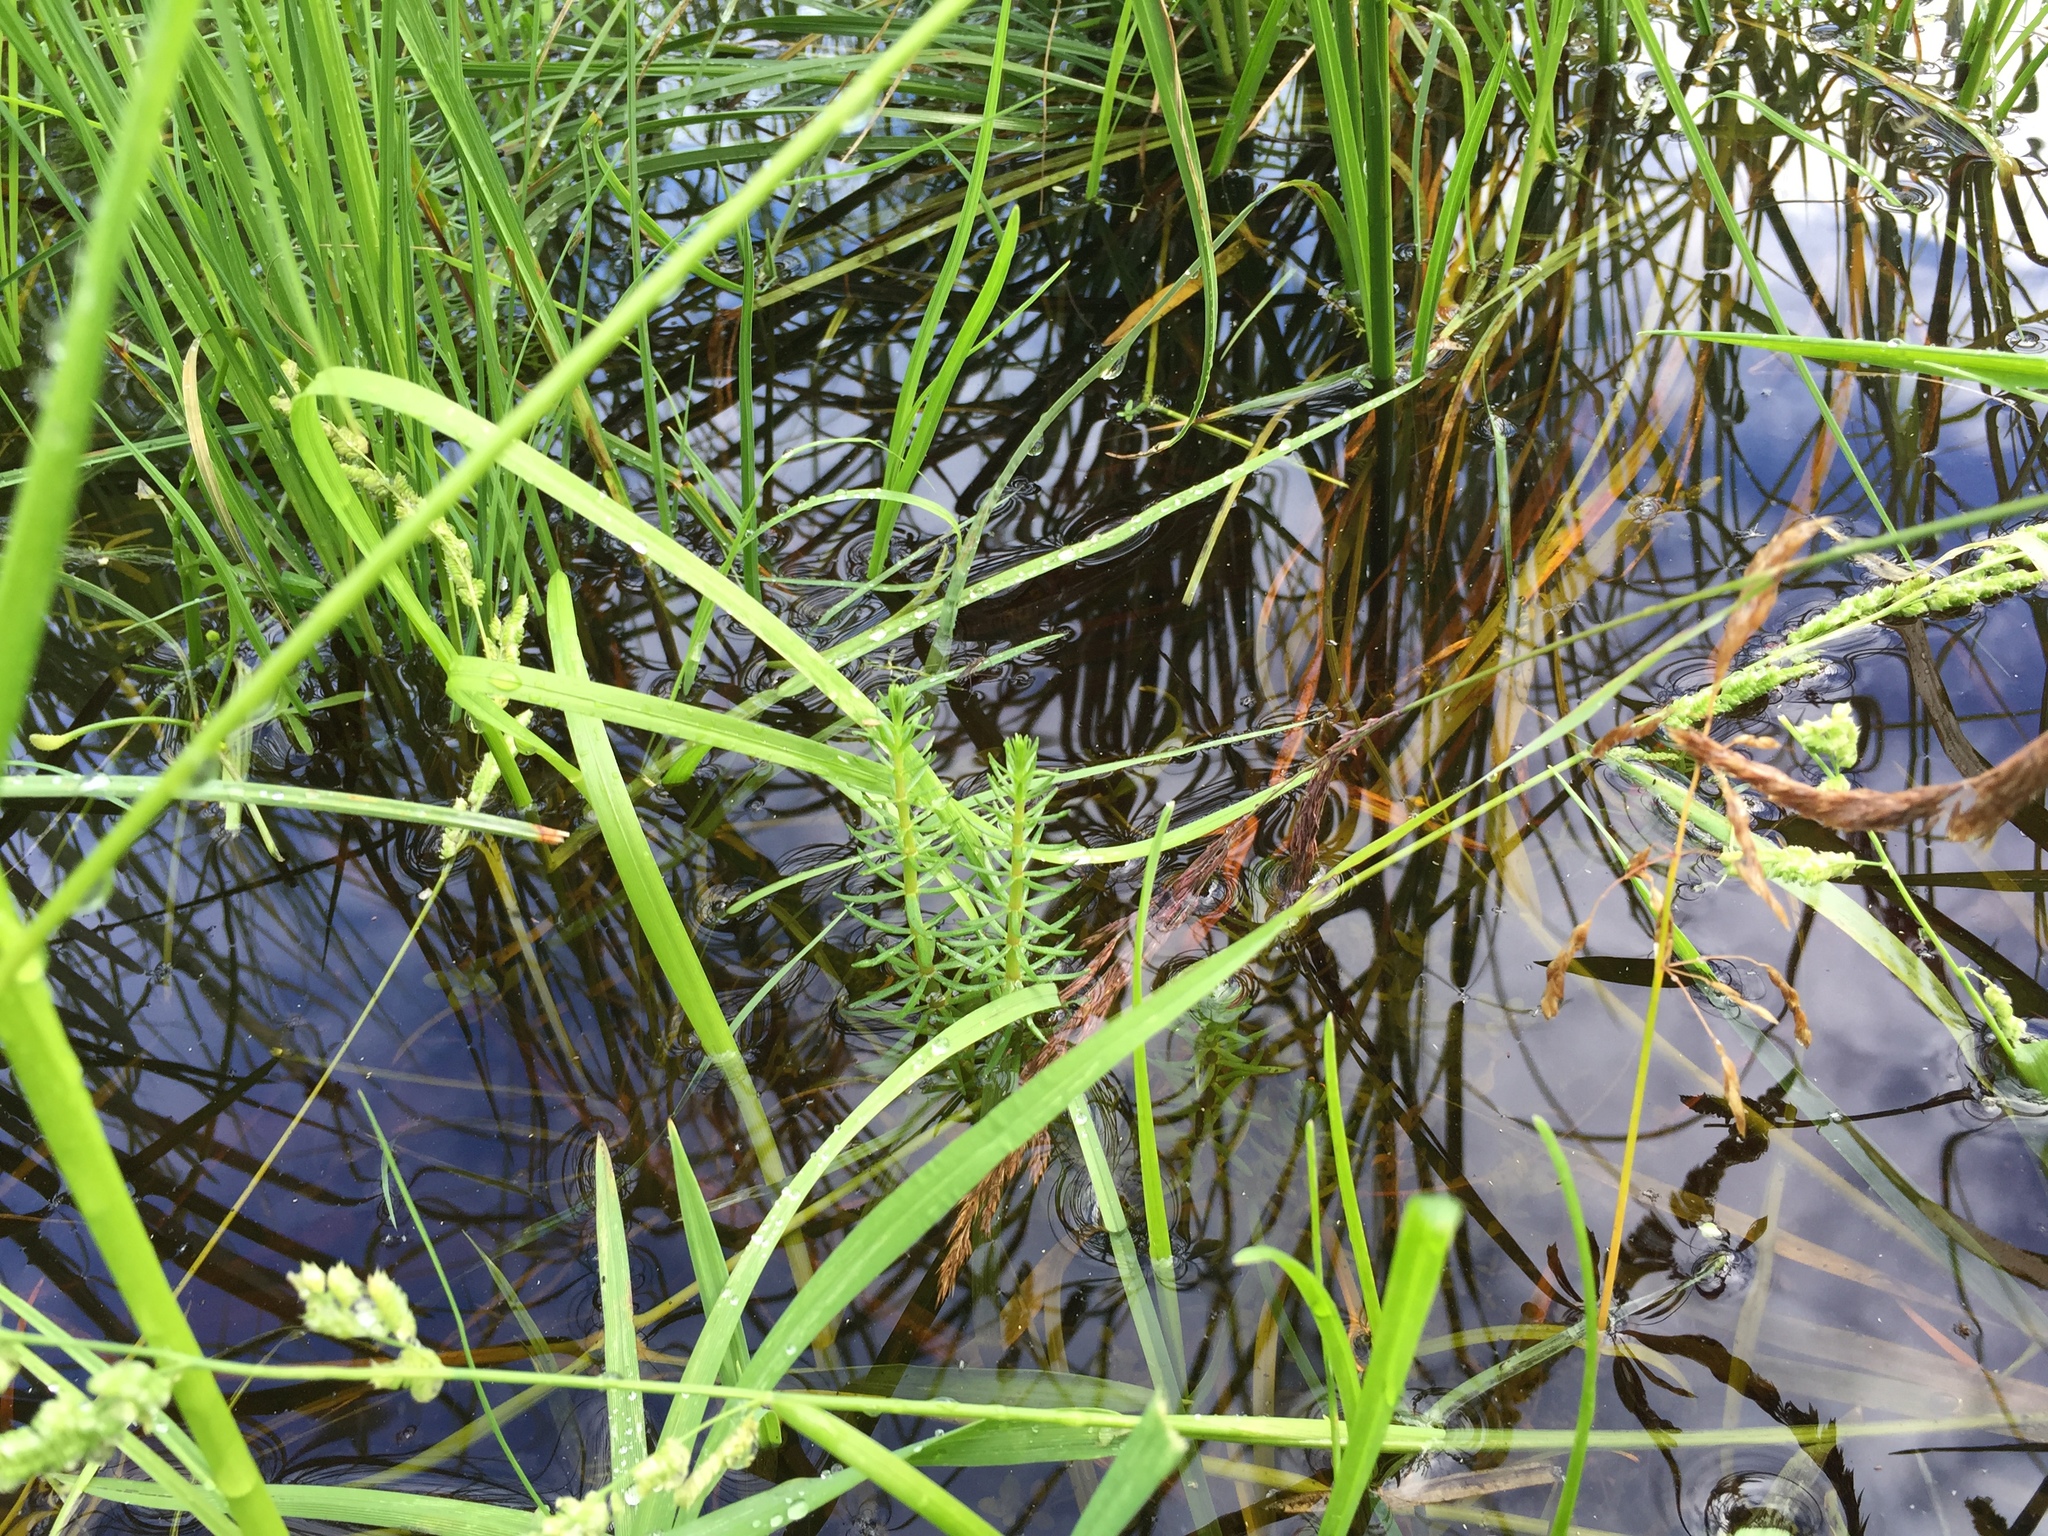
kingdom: Plantae
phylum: Tracheophyta
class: Magnoliopsida
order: Lamiales
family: Plantaginaceae
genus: Hippuris
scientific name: Hippuris vulgaris
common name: Mare's-tail
